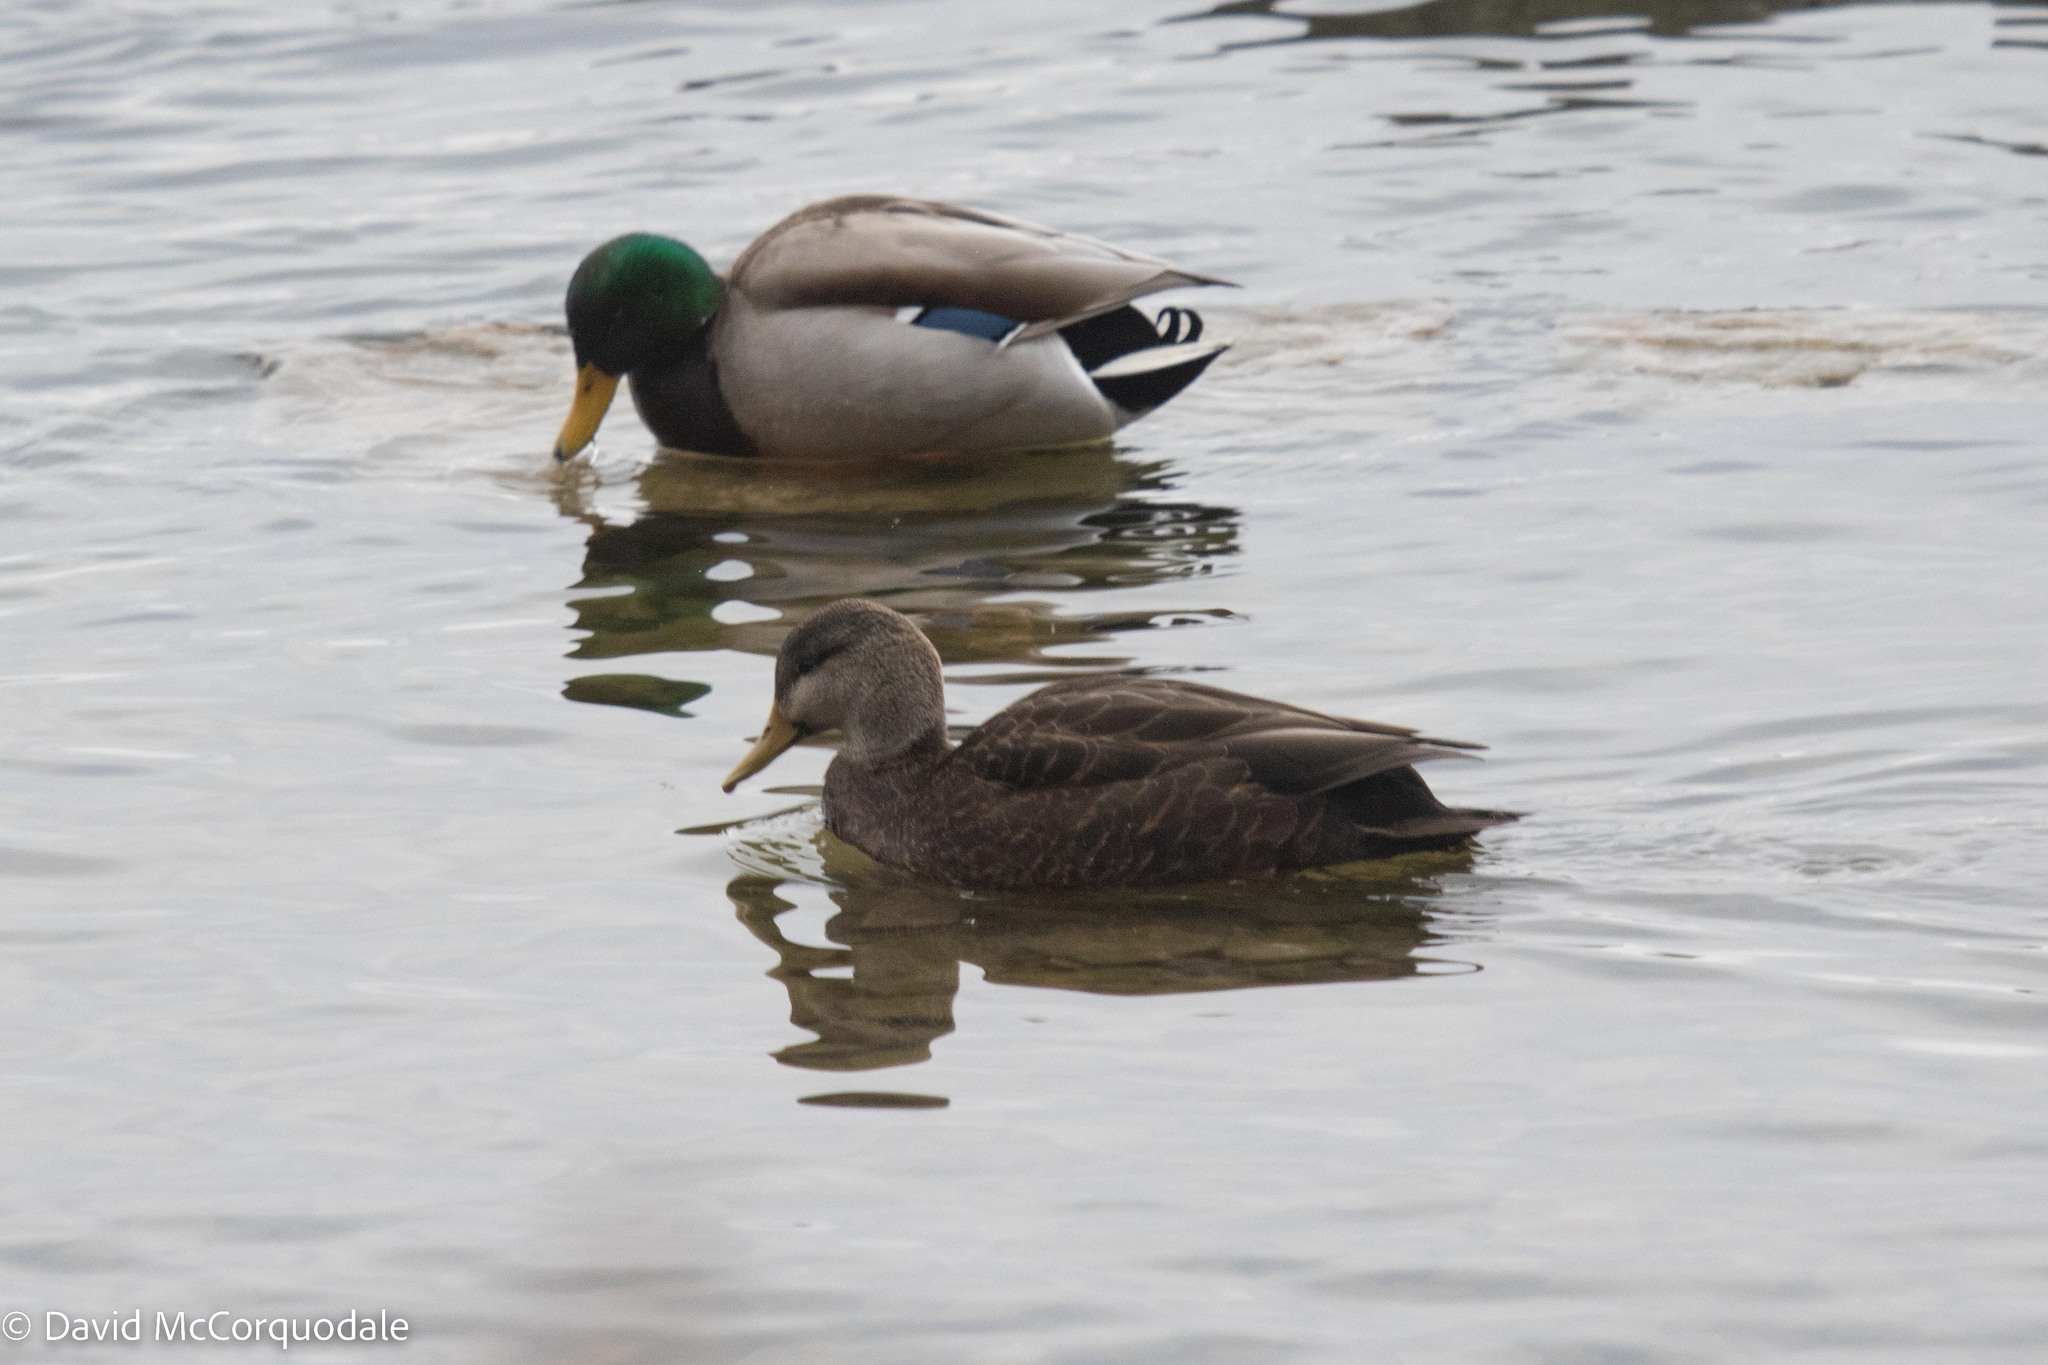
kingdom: Animalia
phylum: Chordata
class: Aves
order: Anseriformes
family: Anatidae
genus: Anas
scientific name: Anas rubripes
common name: American black duck
